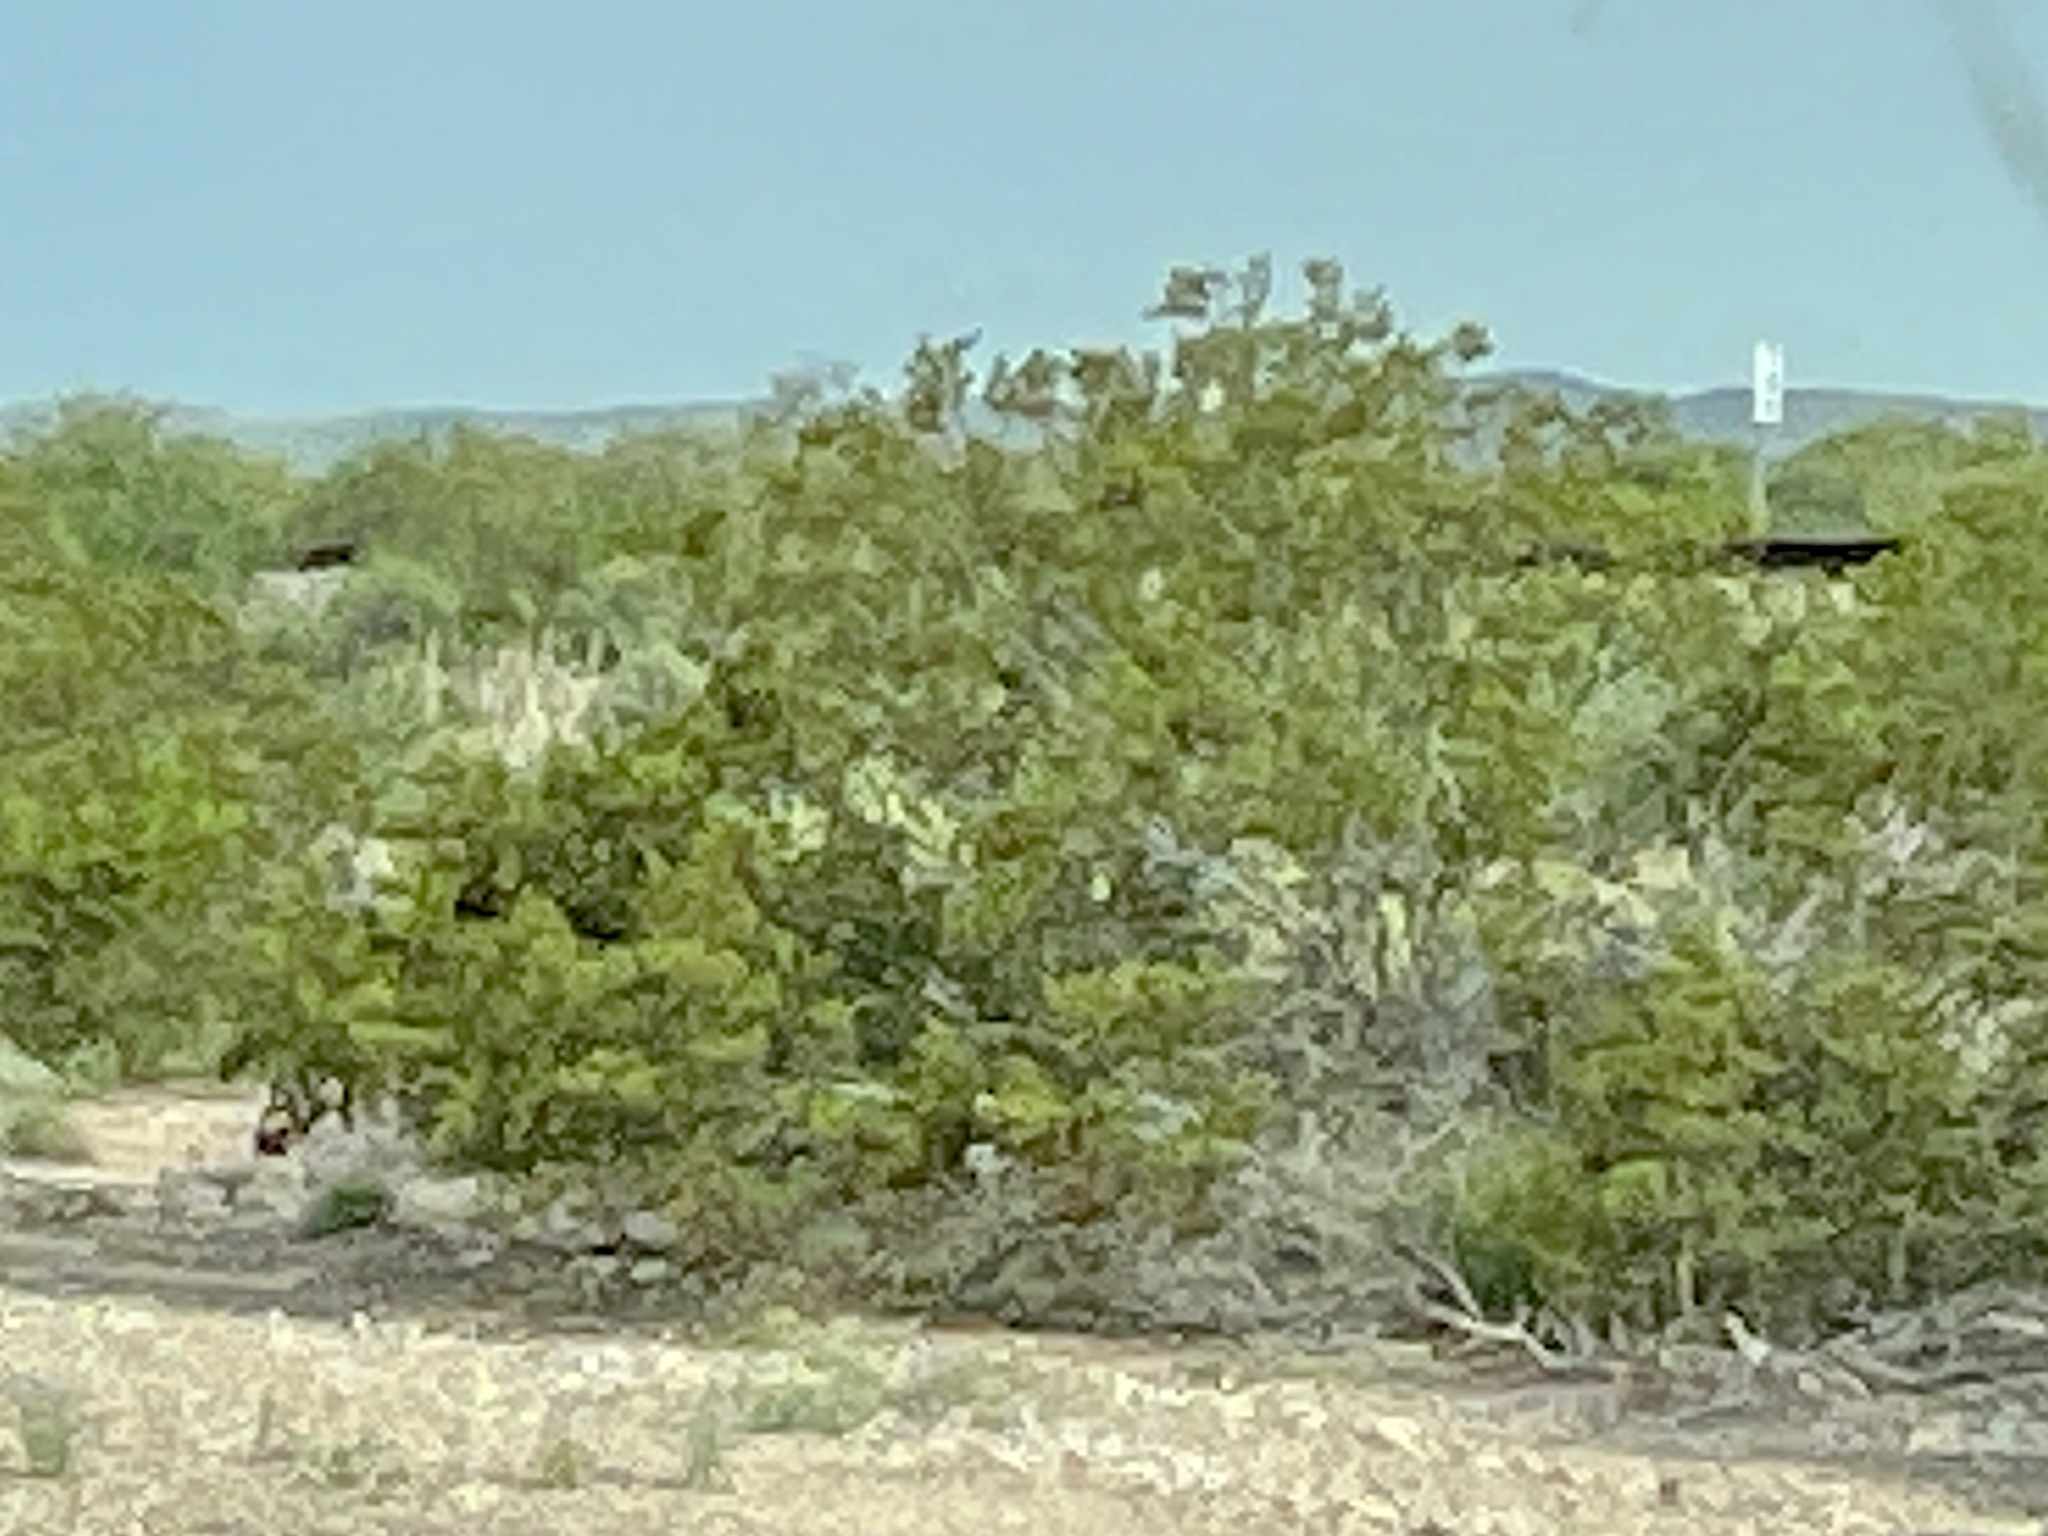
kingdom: Plantae
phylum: Tracheophyta
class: Magnoliopsida
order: Zygophyllales
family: Zygophyllaceae
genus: Larrea
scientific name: Larrea tridentata
